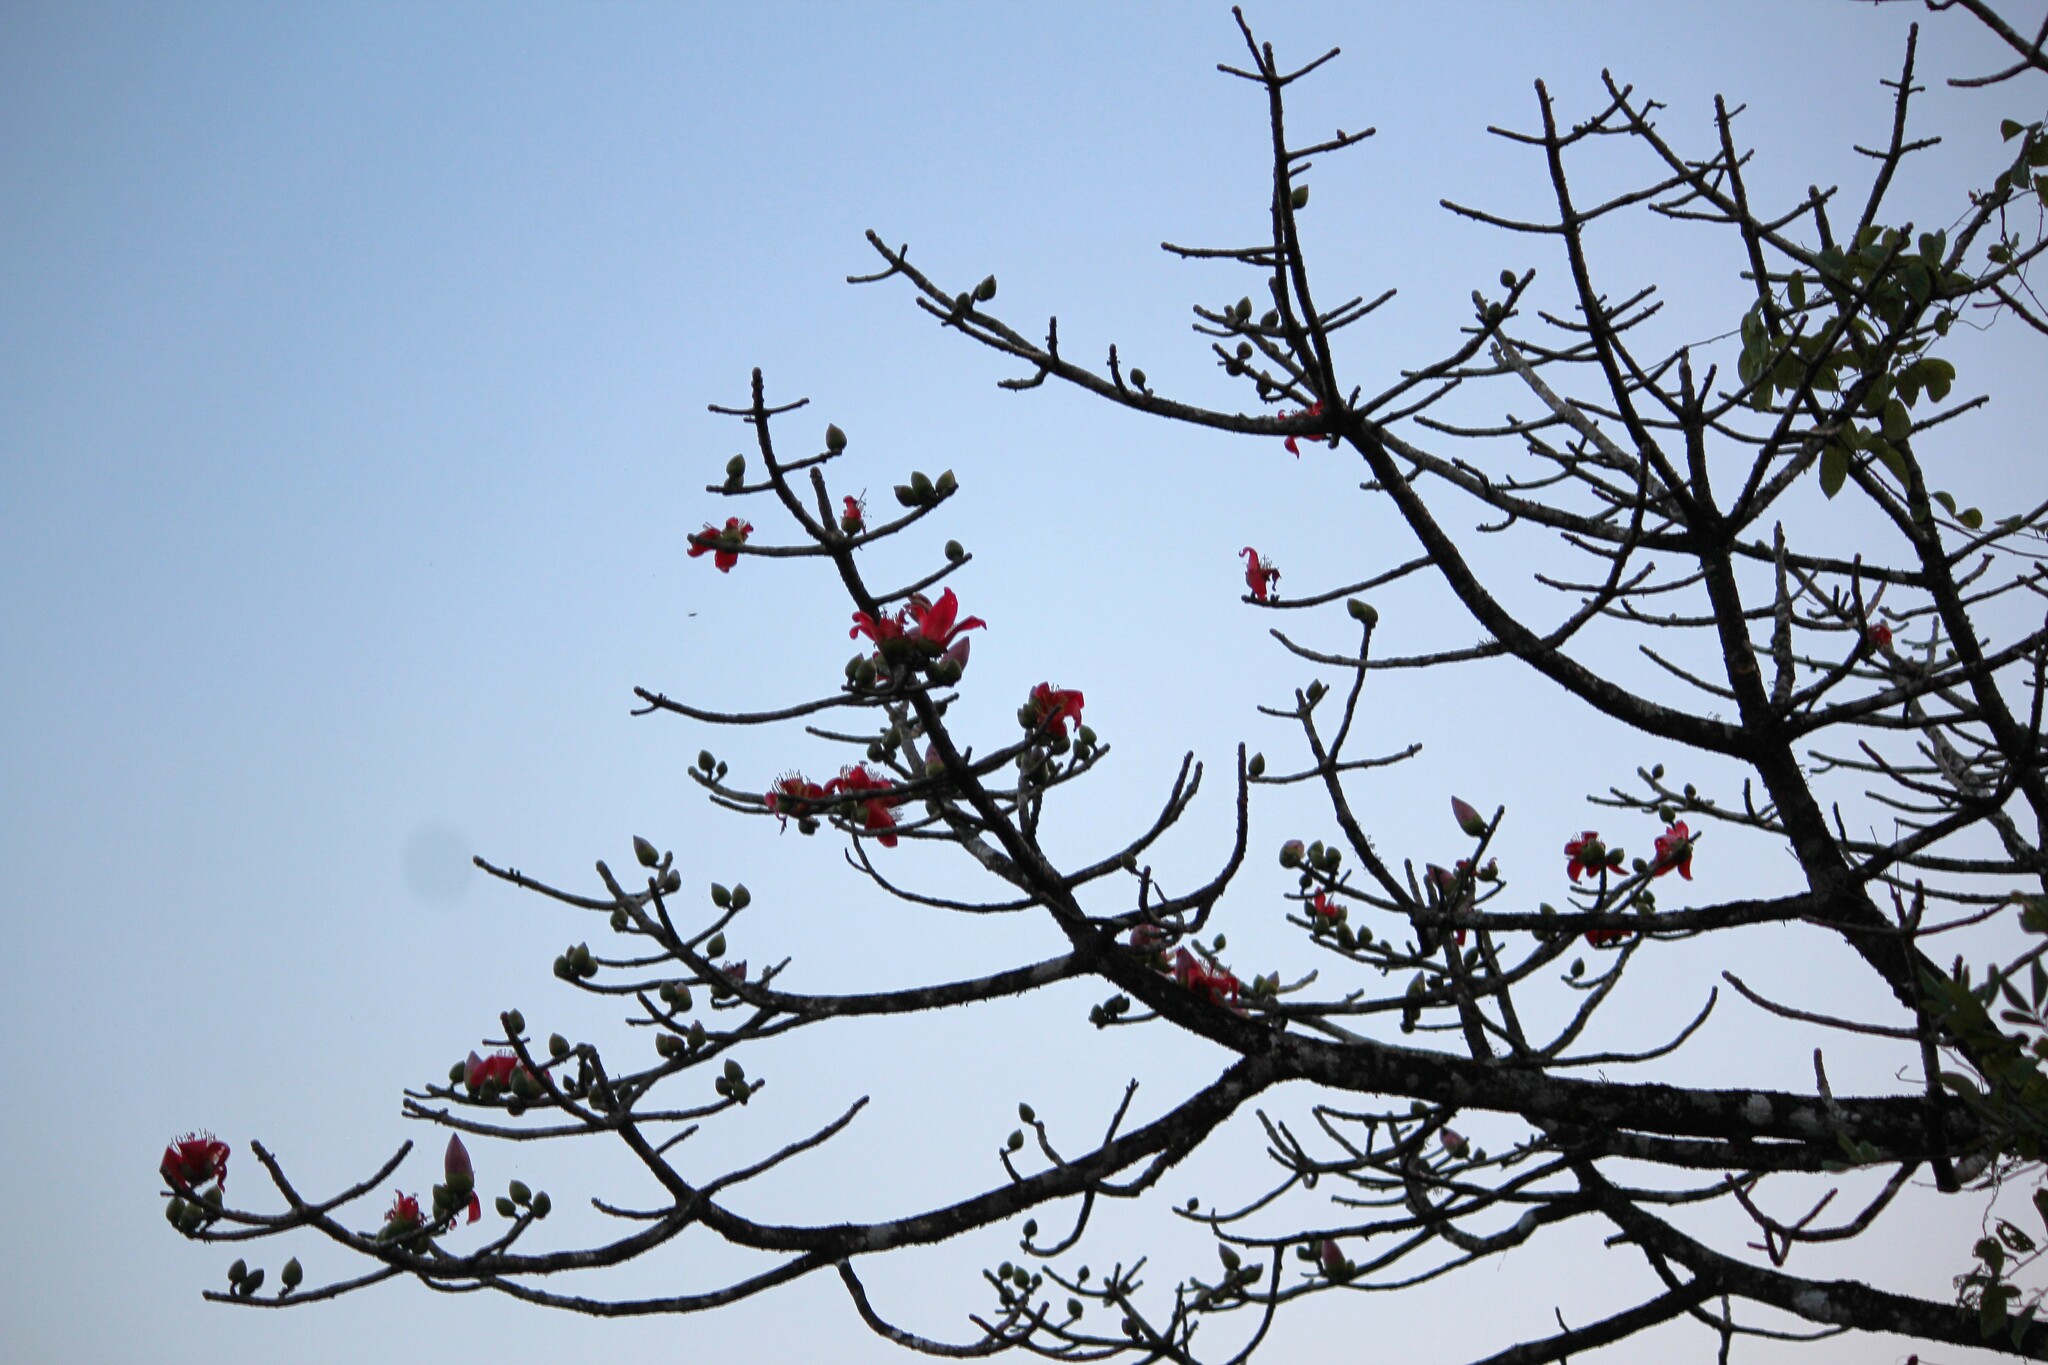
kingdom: Plantae
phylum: Tracheophyta
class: Magnoliopsida
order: Malvales
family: Malvaceae
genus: Bombax
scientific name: Bombax ceiba
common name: Northern-cottonwood
